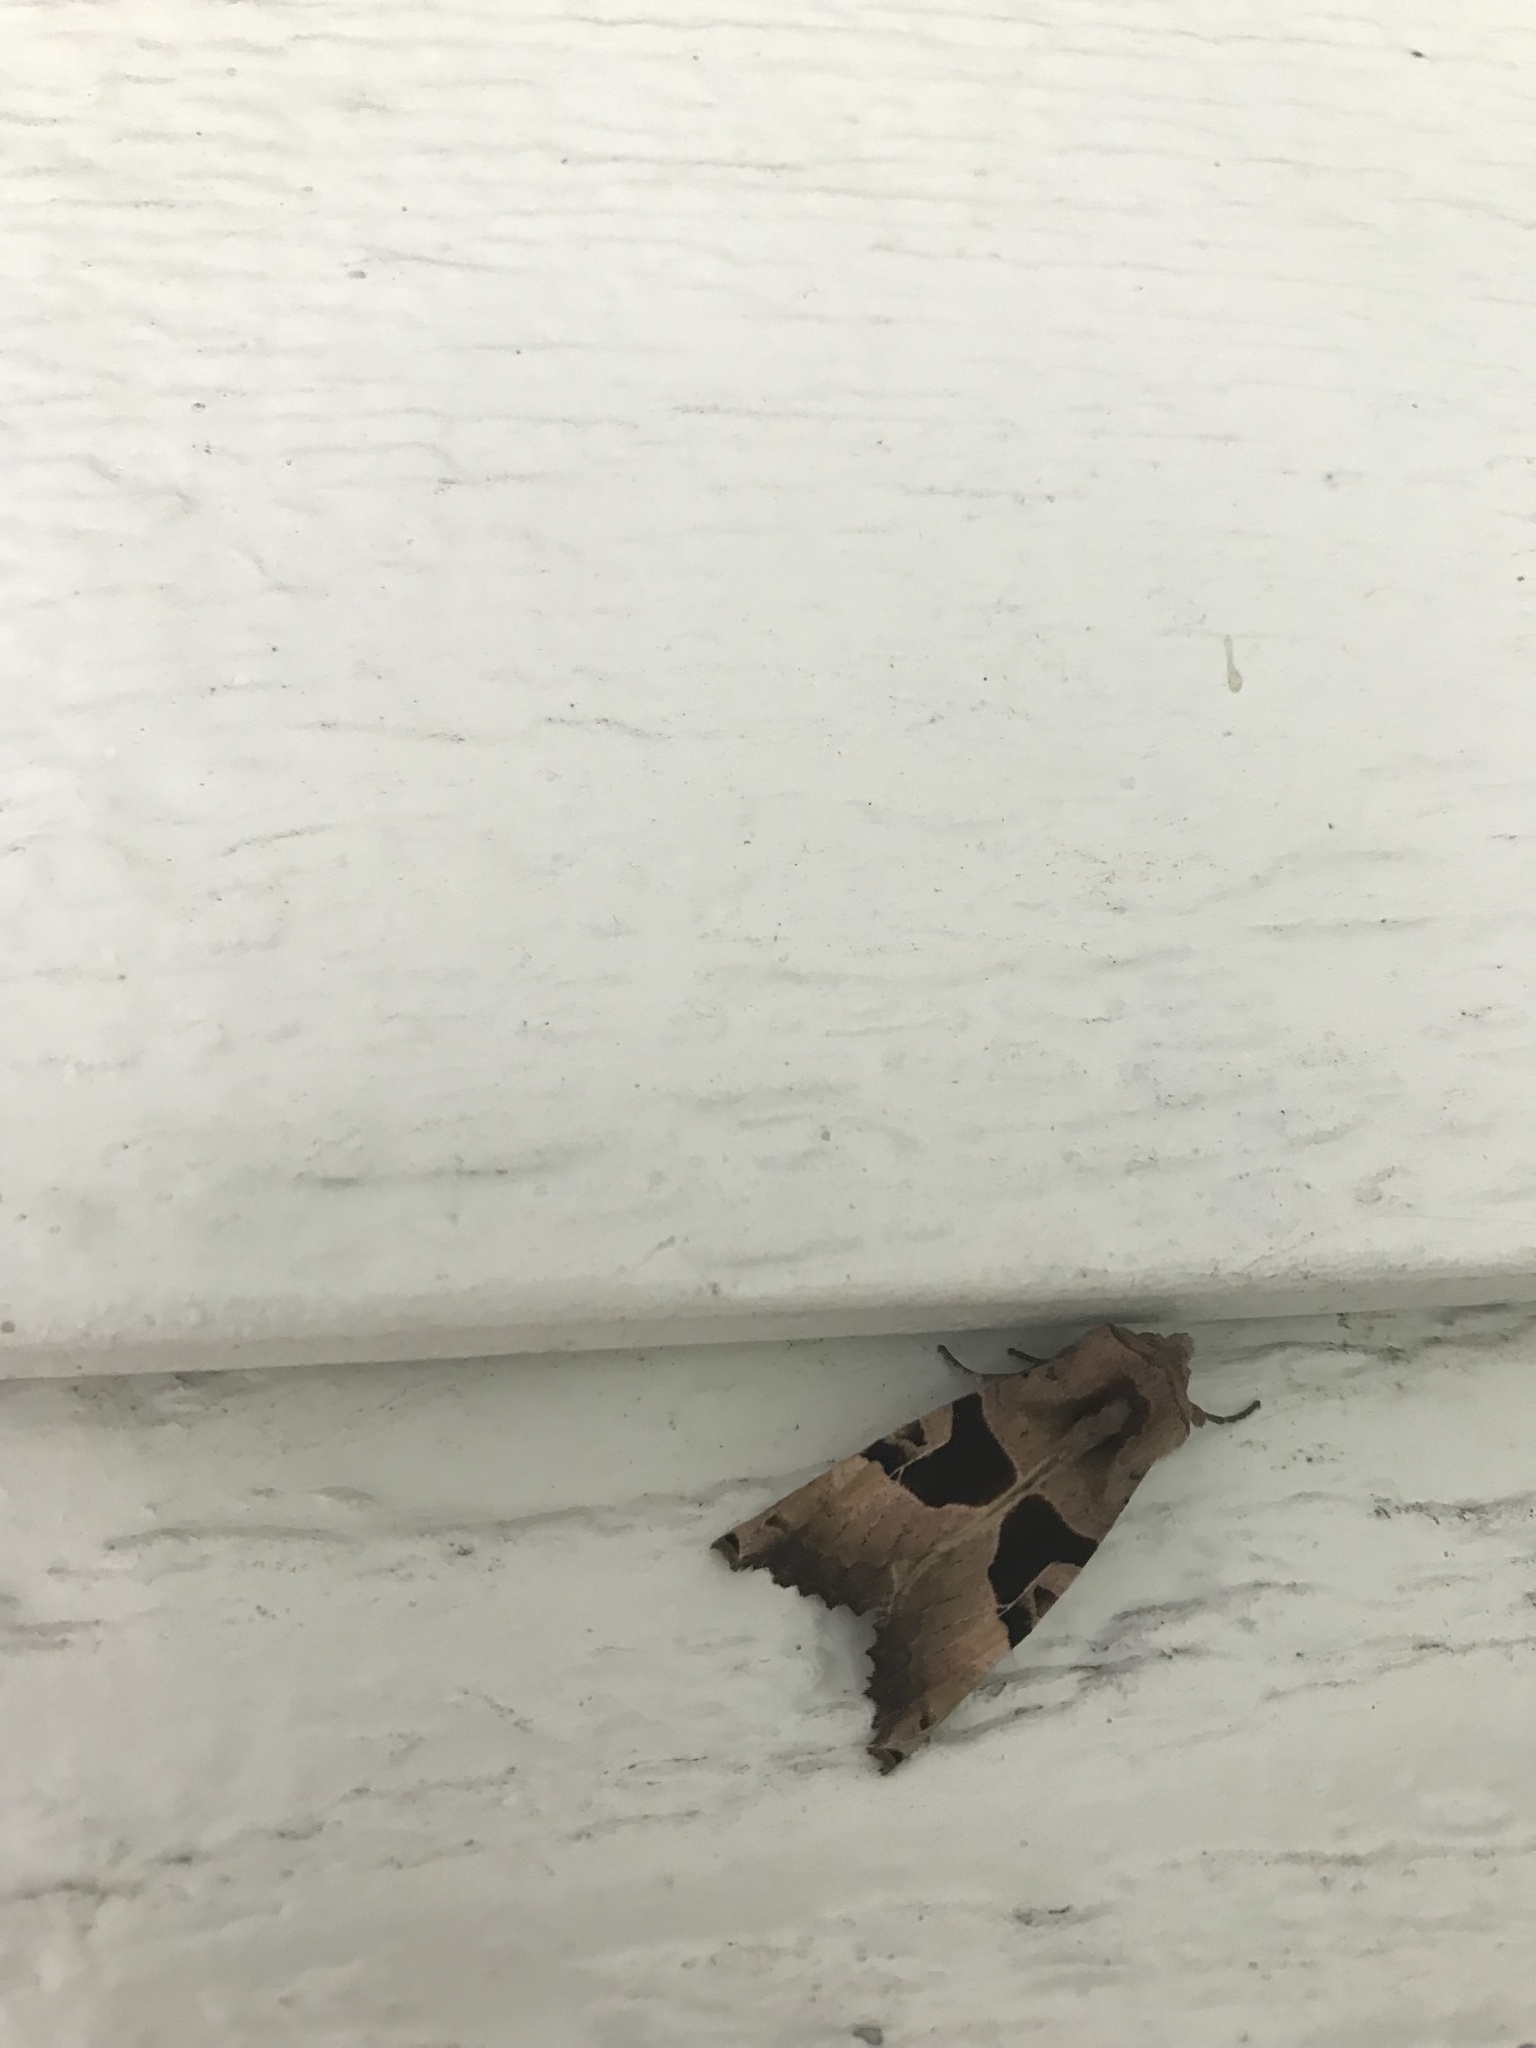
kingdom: Animalia
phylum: Arthropoda
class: Insecta
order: Lepidoptera
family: Noctuidae
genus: Conservula
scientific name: Conservula anodonta
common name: Sharp angle shades
